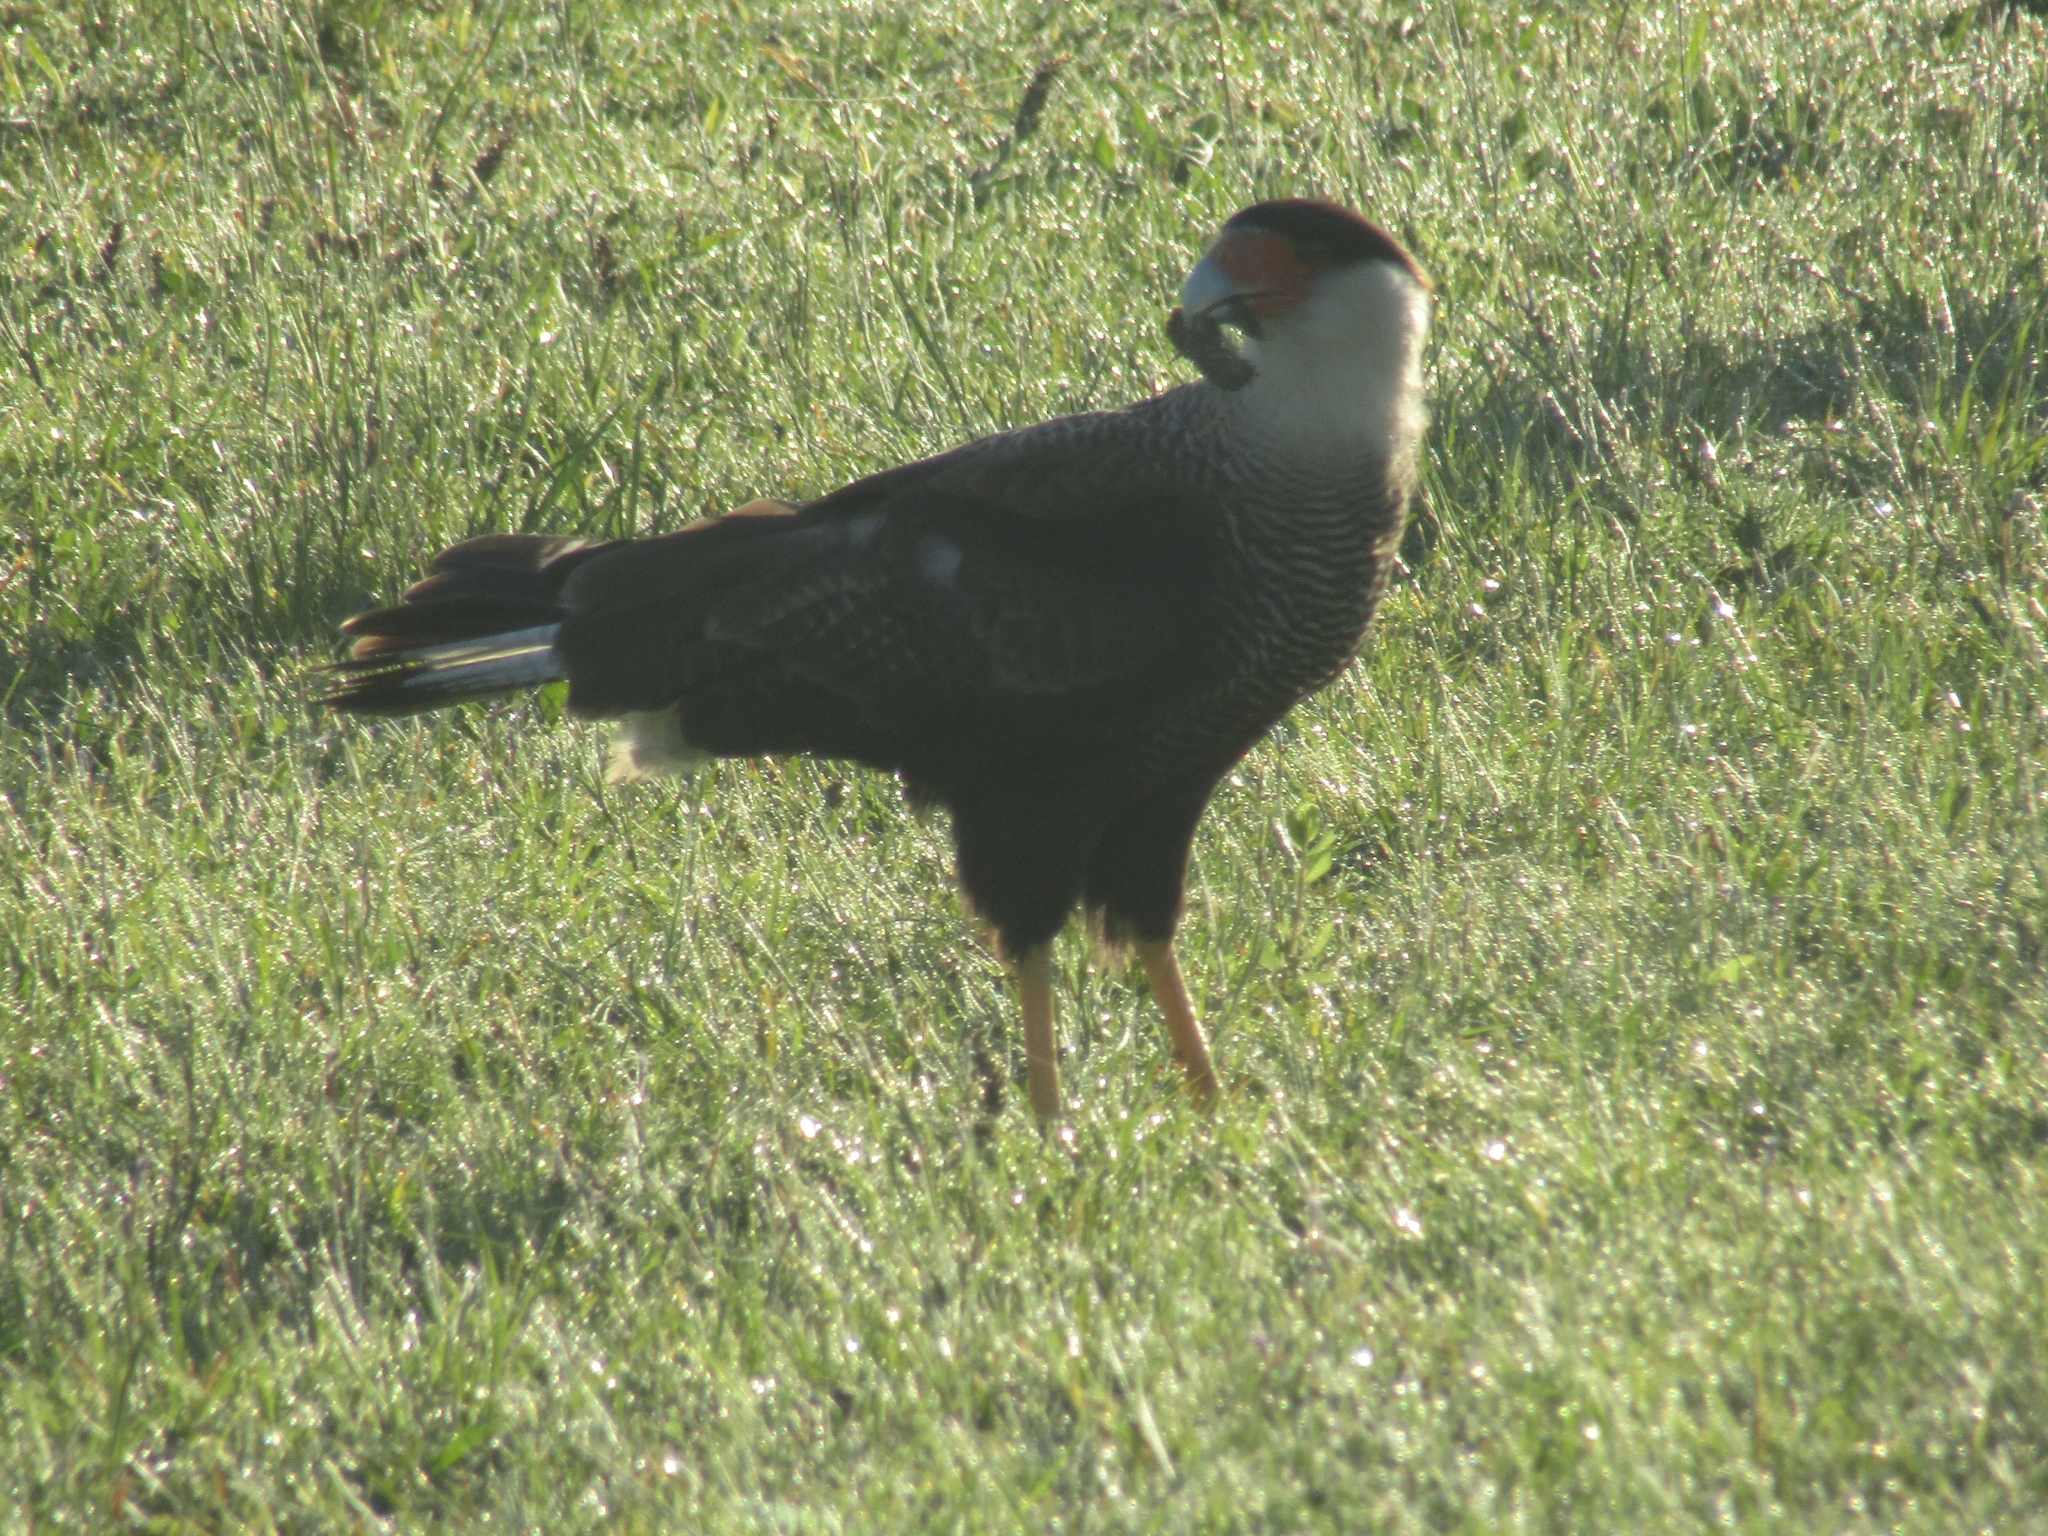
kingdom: Animalia
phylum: Chordata
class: Aves
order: Falconiformes
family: Falconidae
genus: Caracara
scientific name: Caracara plancus
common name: Southern caracara
